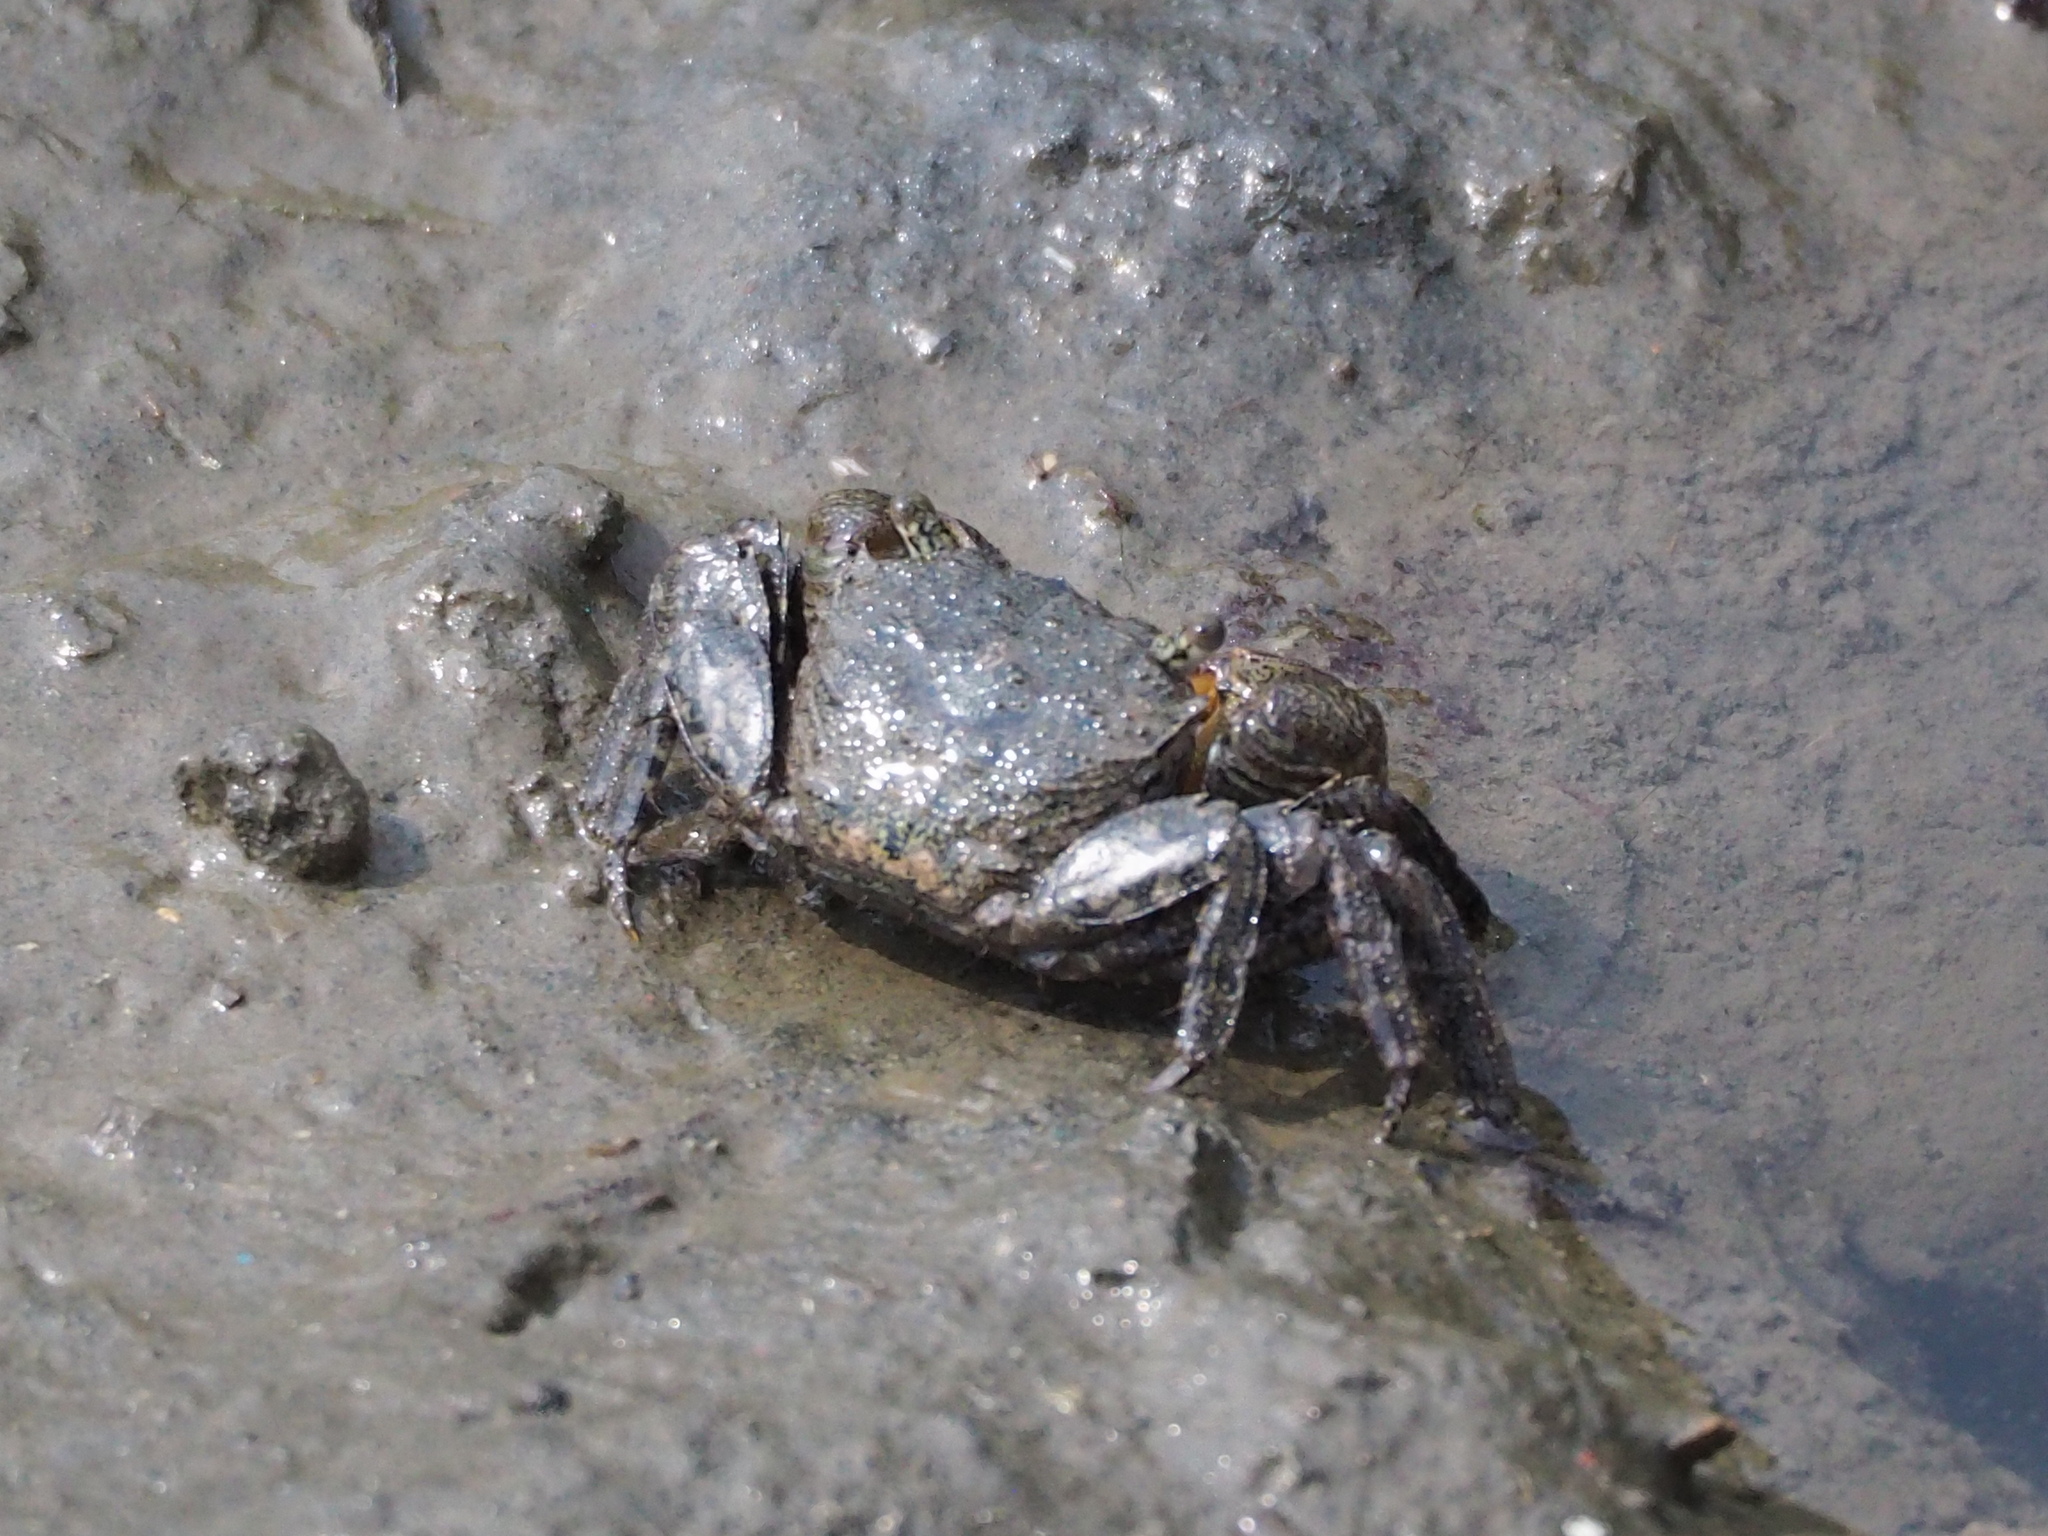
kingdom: Animalia
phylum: Arthropoda
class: Malacostraca
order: Decapoda
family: Sesarmidae
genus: Parasesarma
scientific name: Parasesarma bidens
